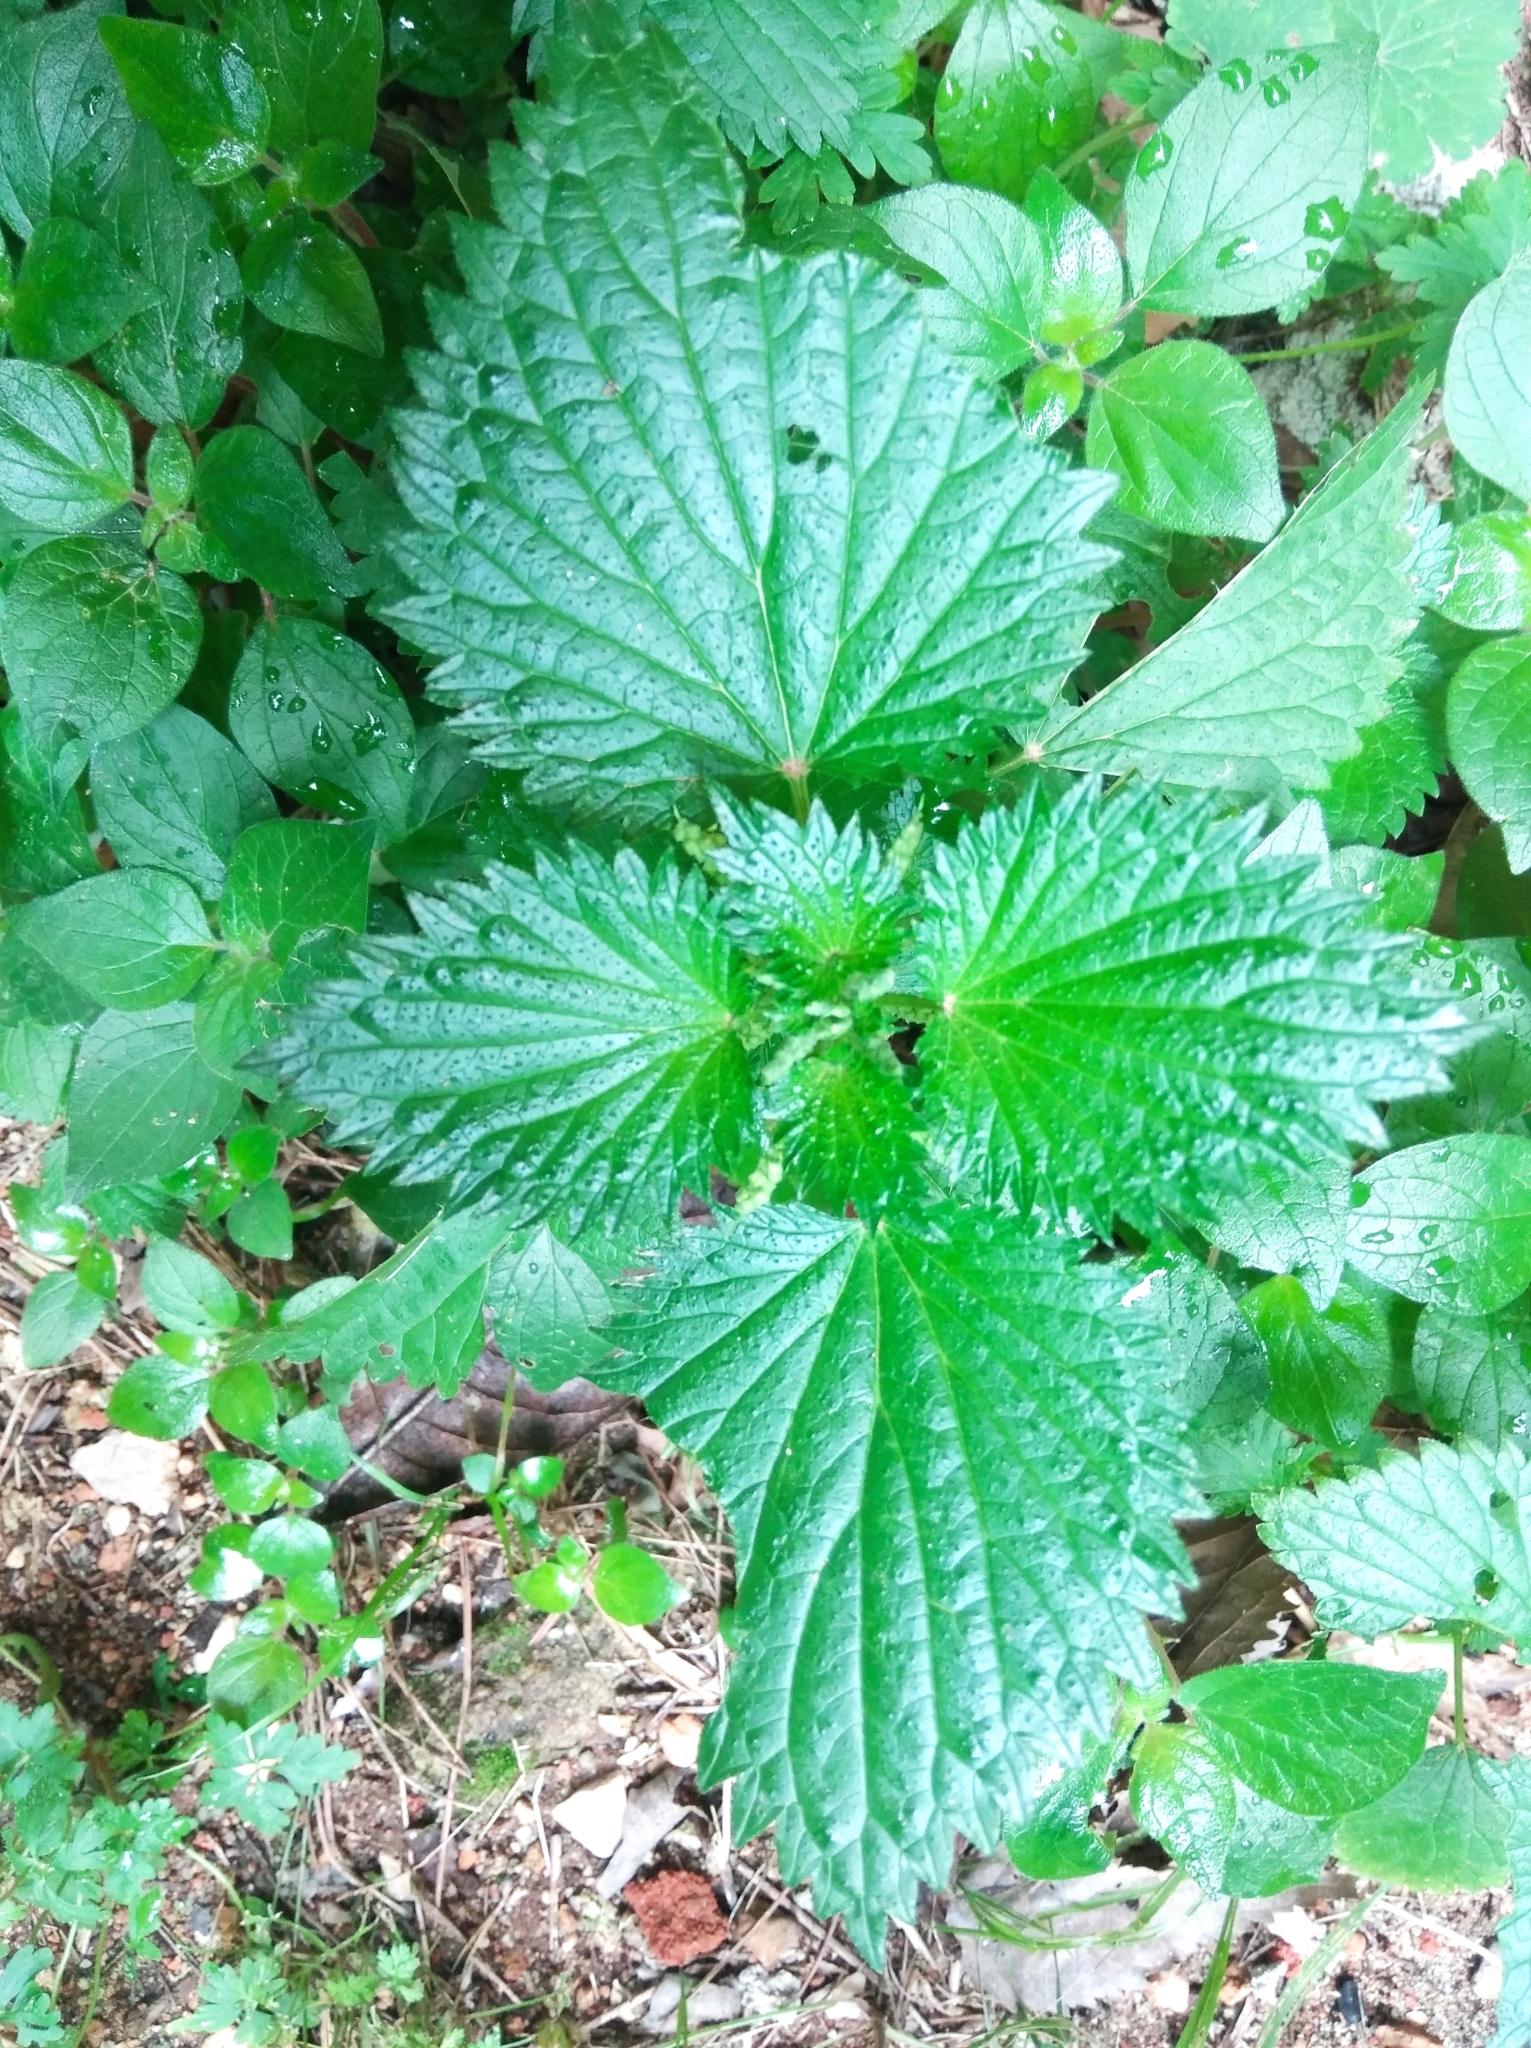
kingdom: Plantae
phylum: Tracheophyta
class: Magnoliopsida
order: Rosales
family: Urticaceae
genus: Urtica
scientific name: Urtica dioica
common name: Common nettle
